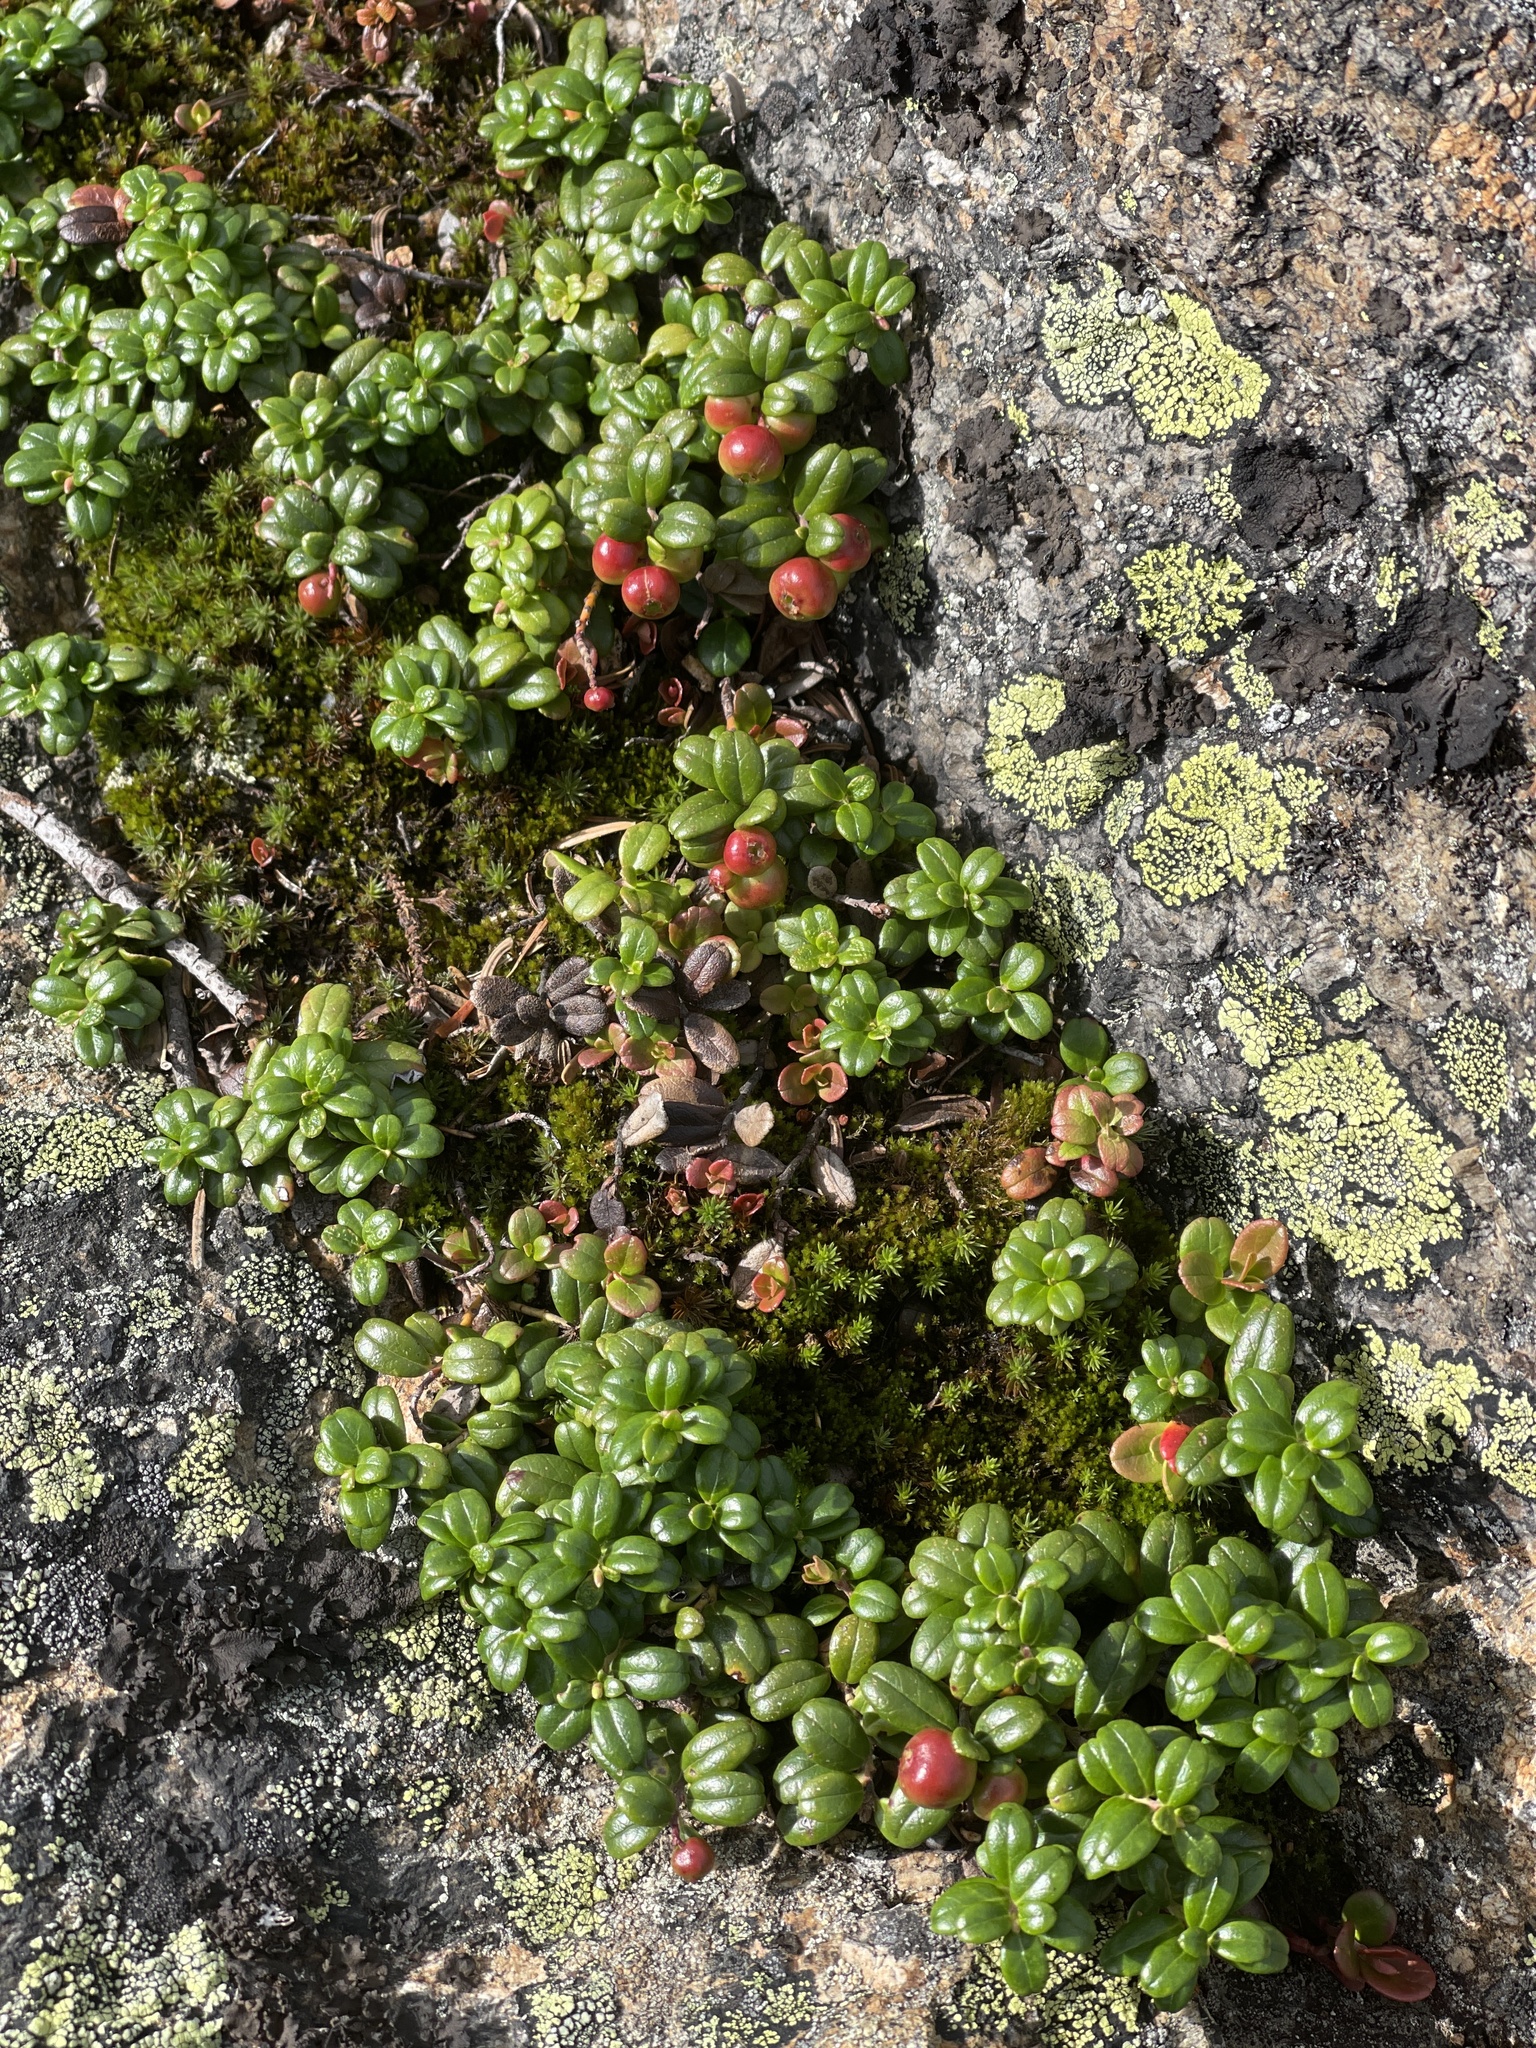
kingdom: Plantae
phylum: Tracheophyta
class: Magnoliopsida
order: Ericales
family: Ericaceae
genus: Vaccinium
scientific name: Vaccinium vitis-idaea
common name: Cowberry
